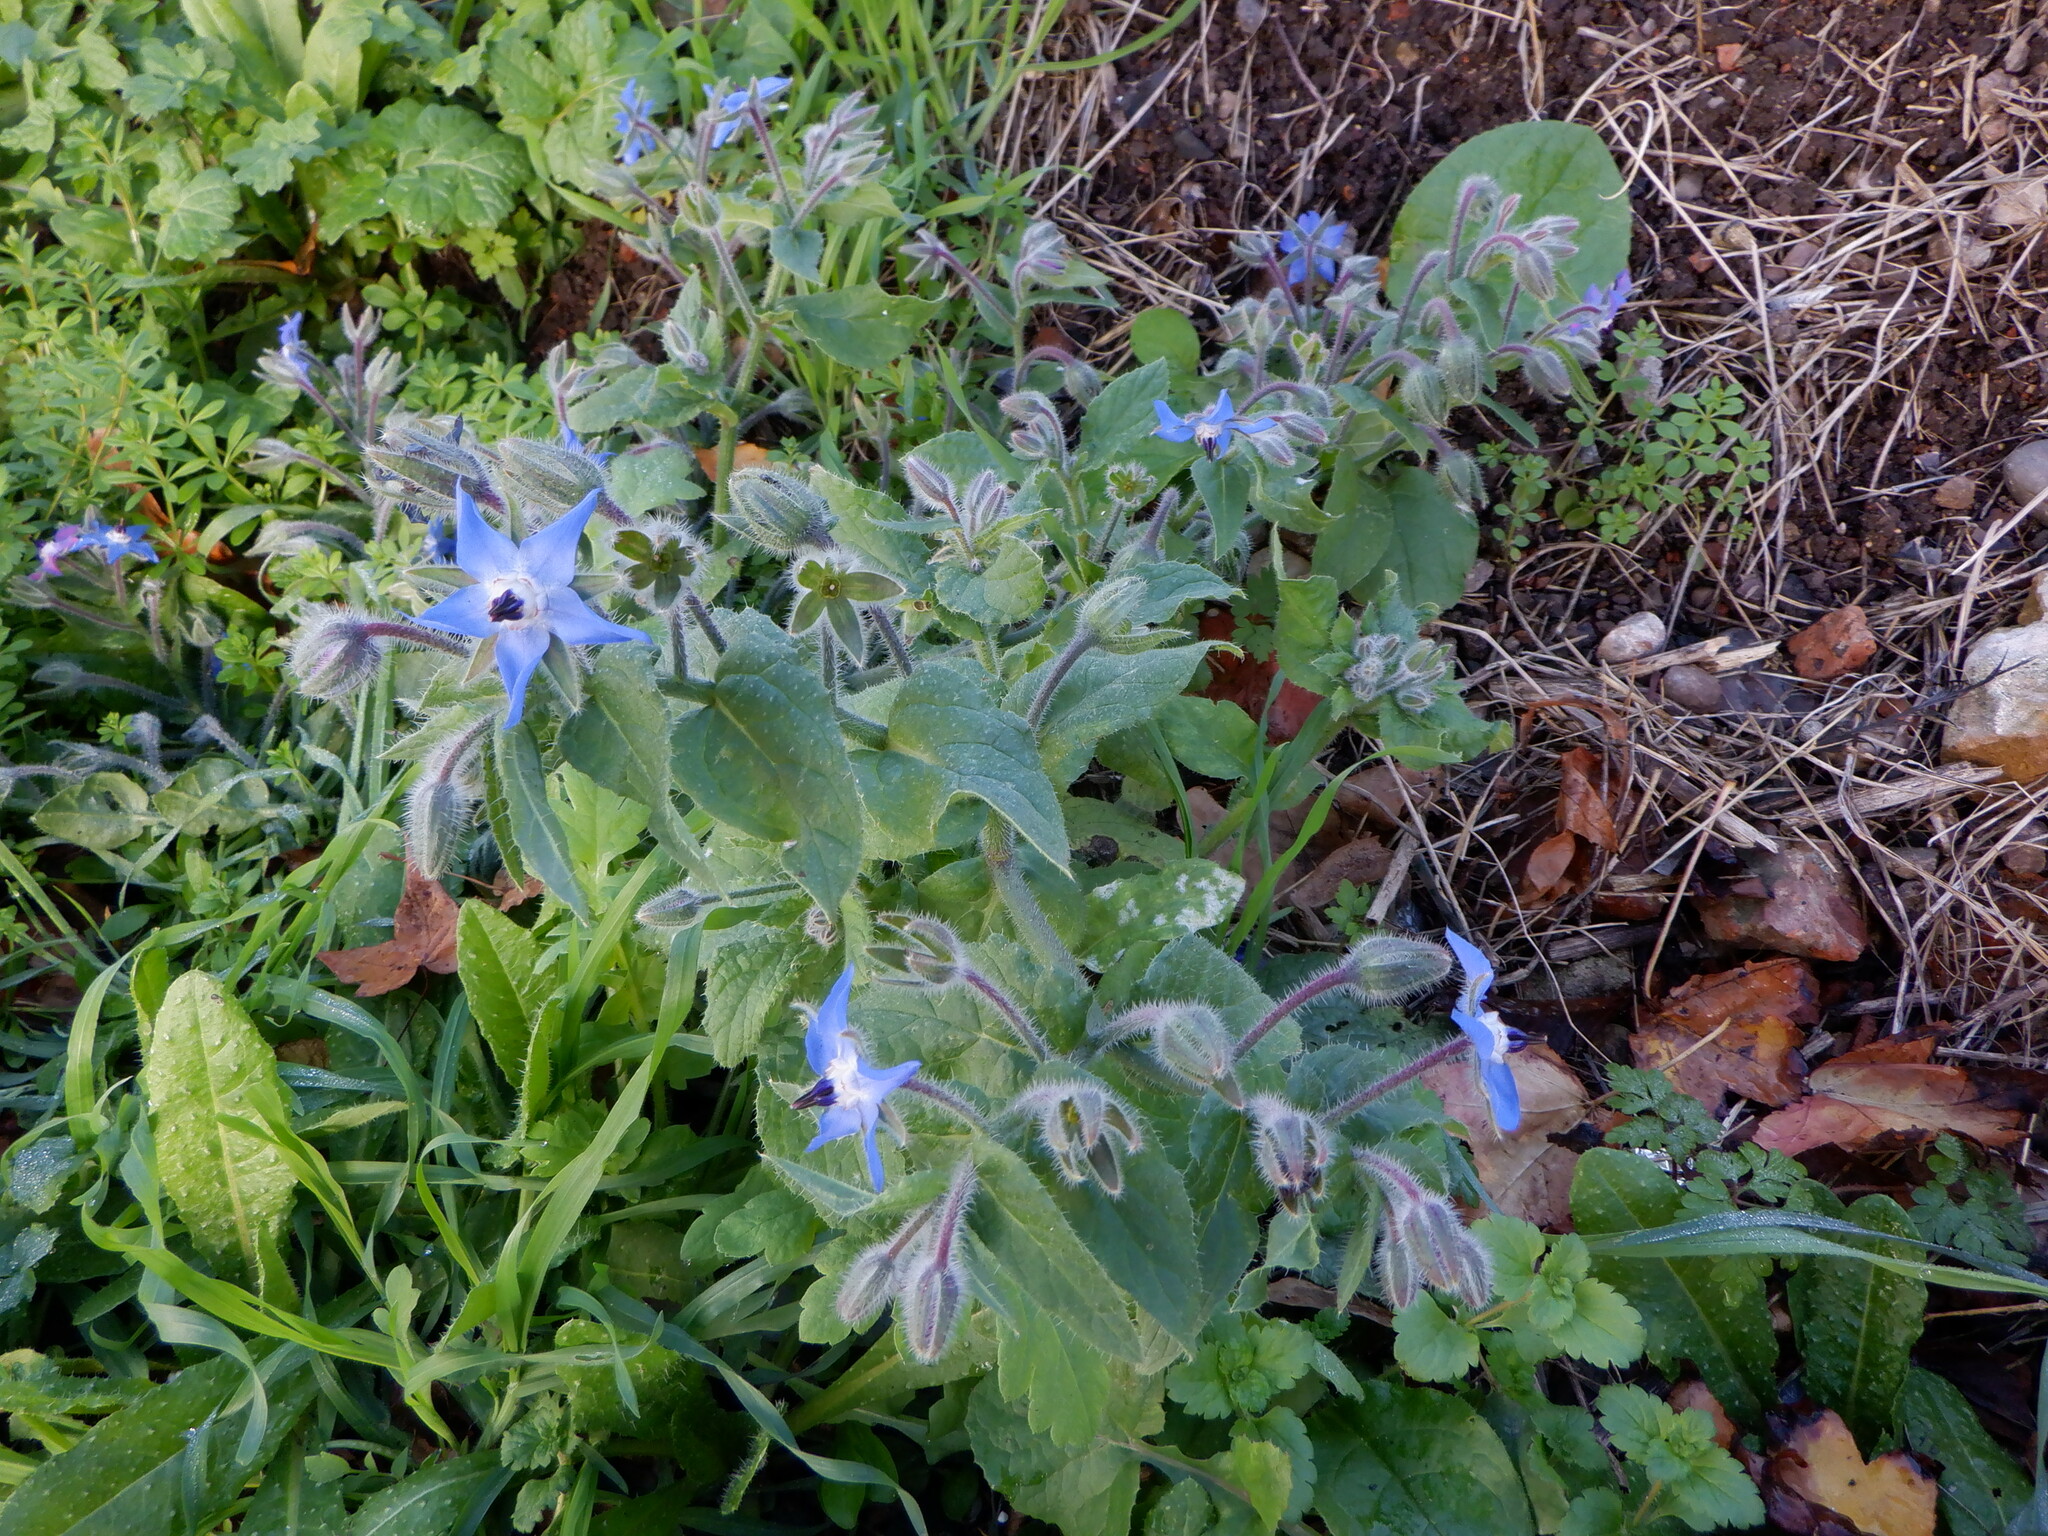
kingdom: Plantae
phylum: Tracheophyta
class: Magnoliopsida
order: Boraginales
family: Boraginaceae
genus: Borago
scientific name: Borago officinalis
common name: Borage
